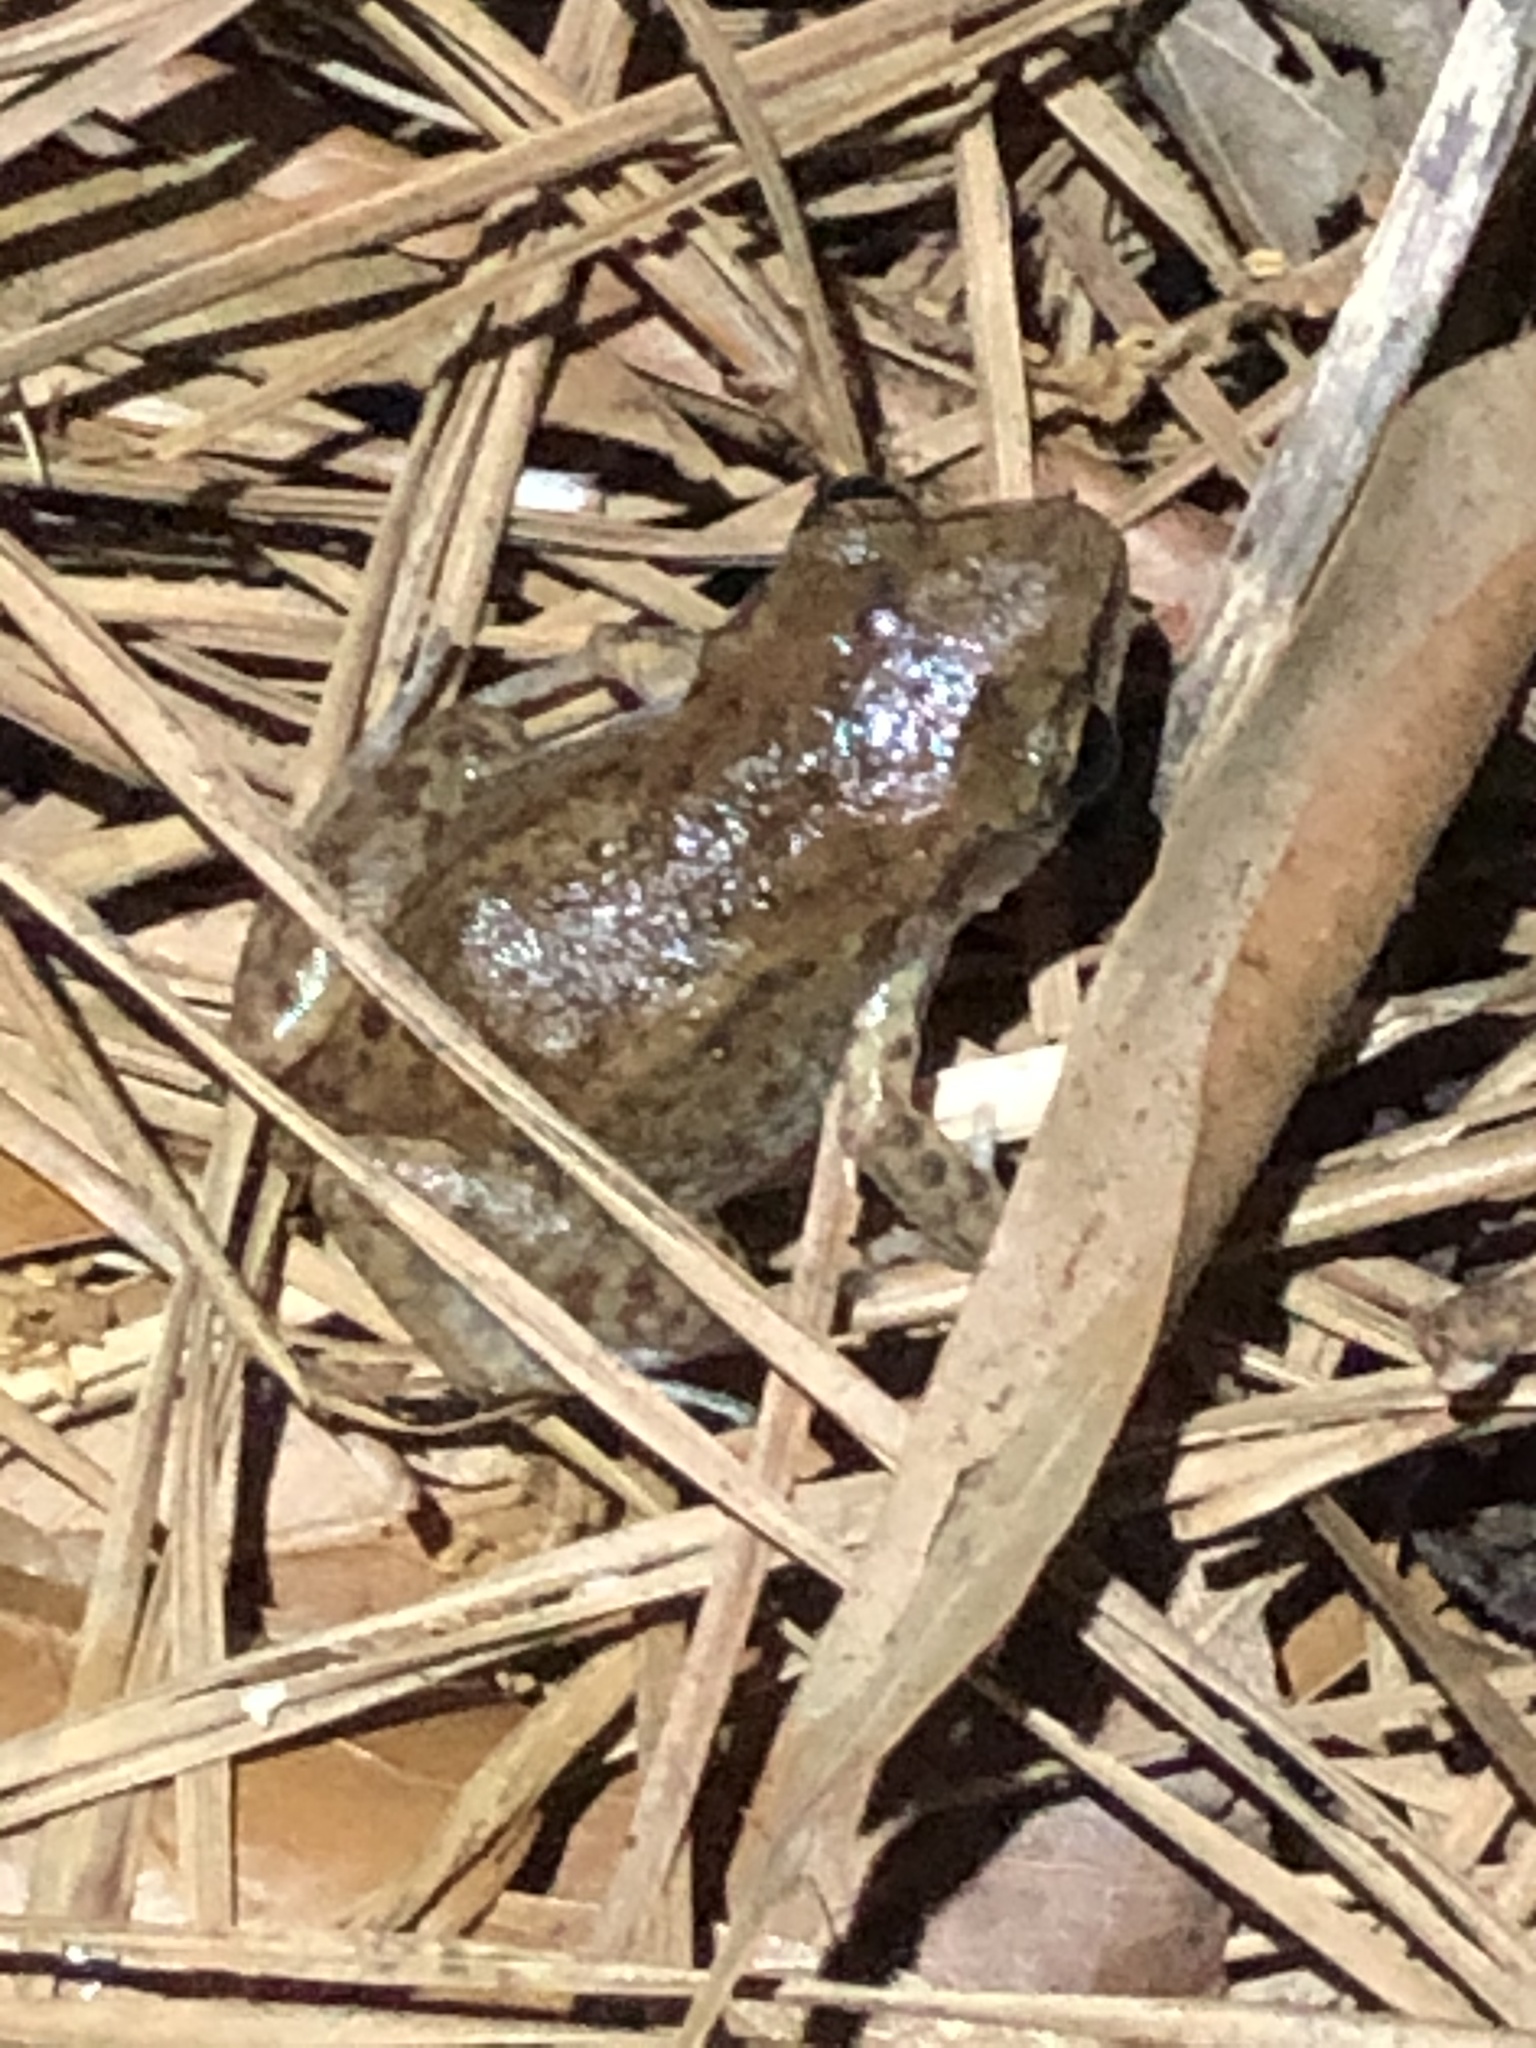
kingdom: Animalia
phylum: Chordata
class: Amphibia
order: Anura
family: Eleutherodactylidae
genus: Eleutherodactylus
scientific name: Eleutherodactylus campi
